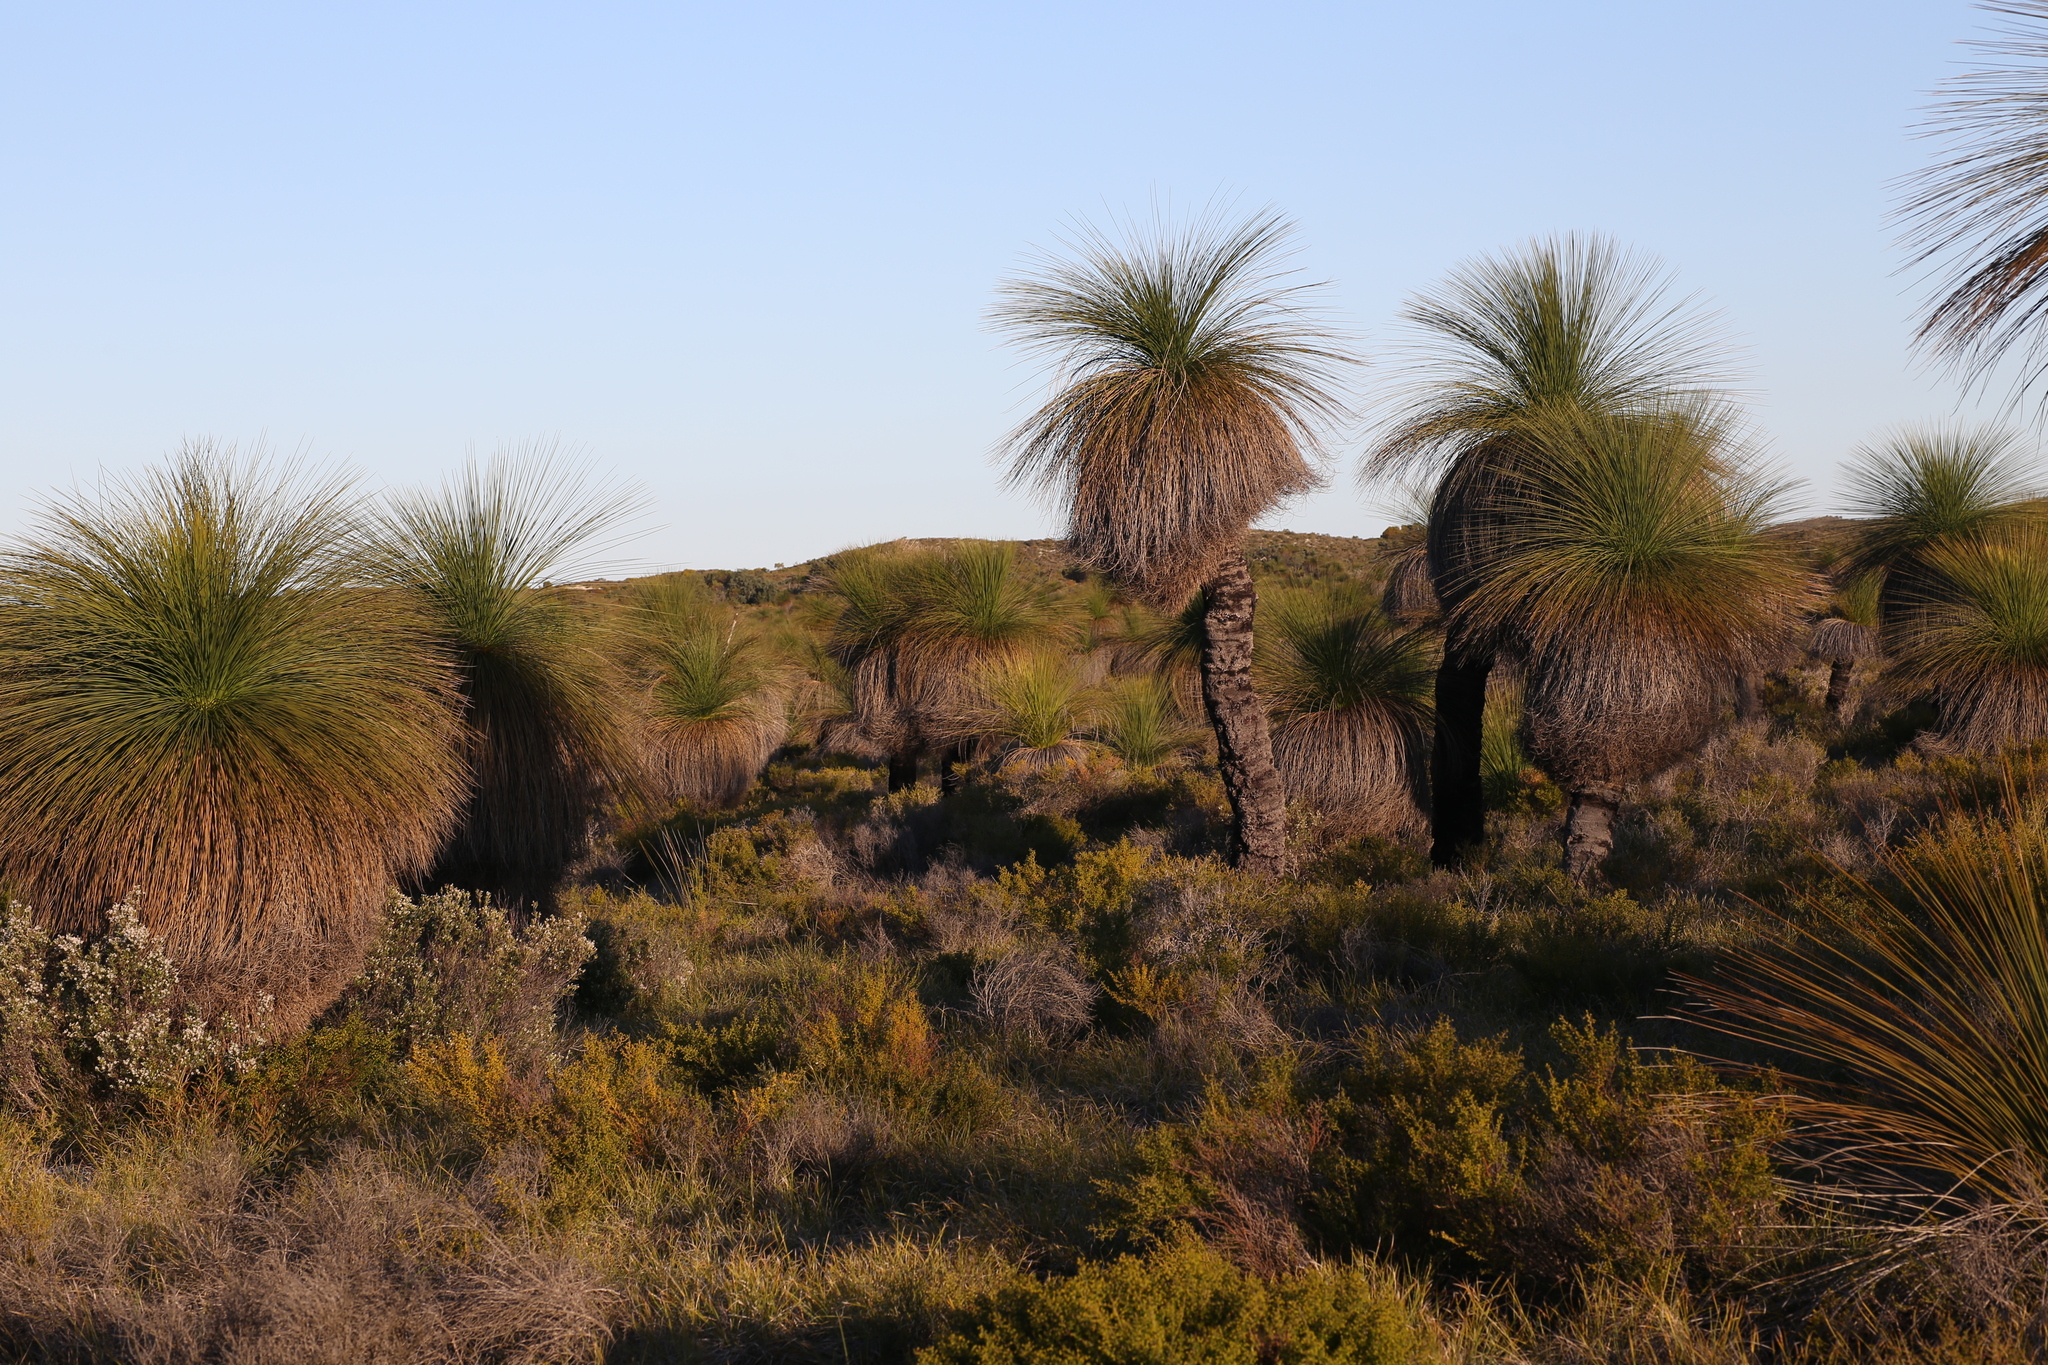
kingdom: Plantae
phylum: Marchantiophyta
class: Jungermanniopsida
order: Fossombroniales
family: Petalophyllaceae
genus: Petalophyllum
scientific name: Petalophyllum preissii
